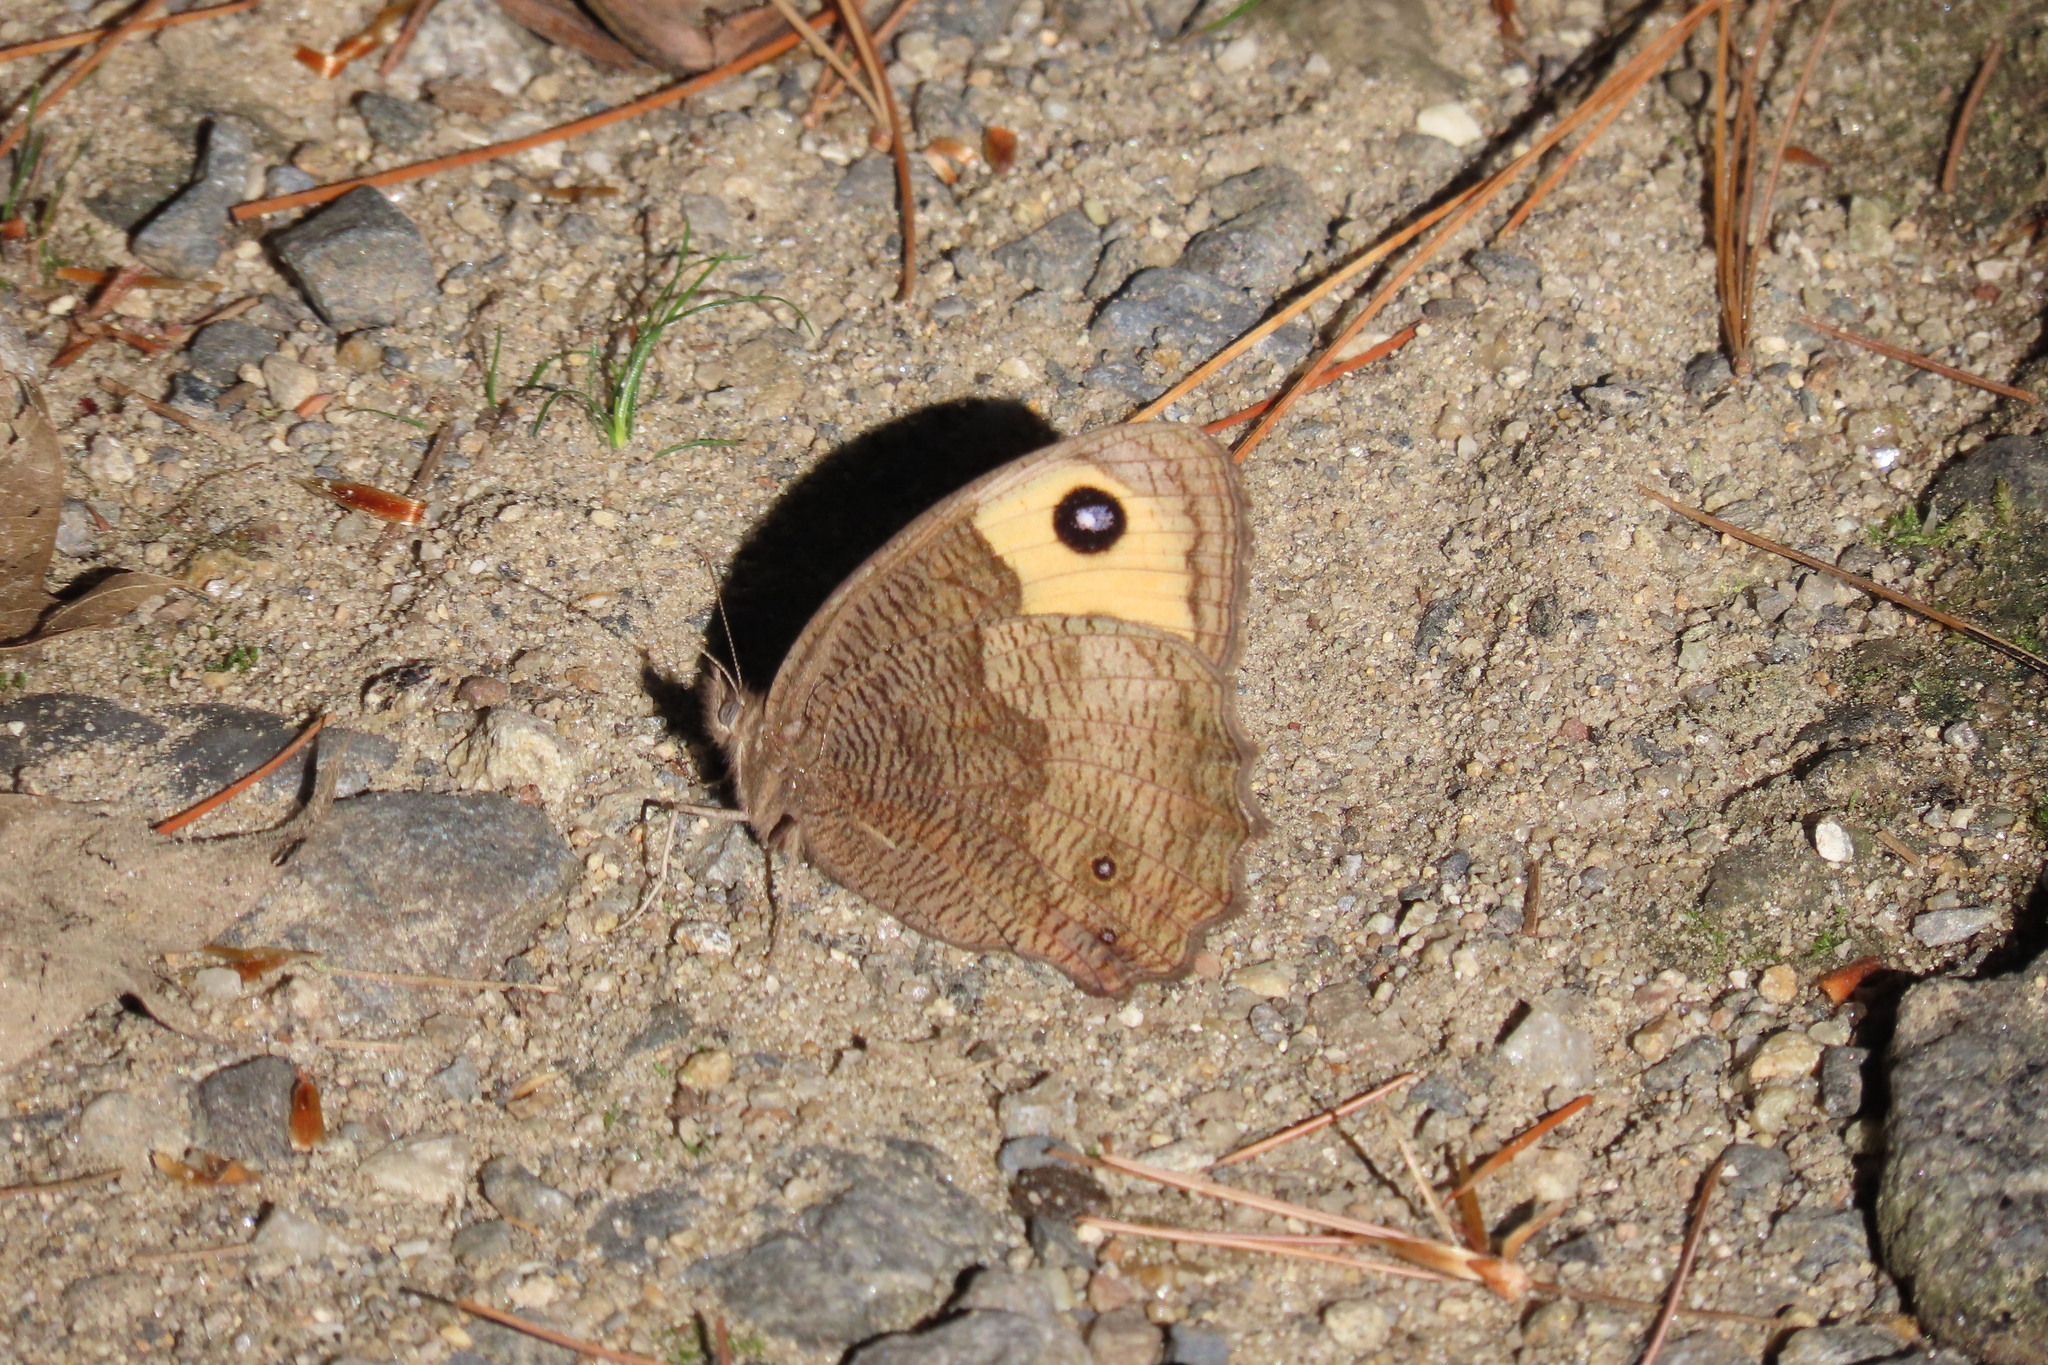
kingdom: Animalia
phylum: Arthropoda
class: Insecta
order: Lepidoptera
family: Nymphalidae
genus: Cercyonis
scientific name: Cercyonis pegala
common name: Common wood-nymph
